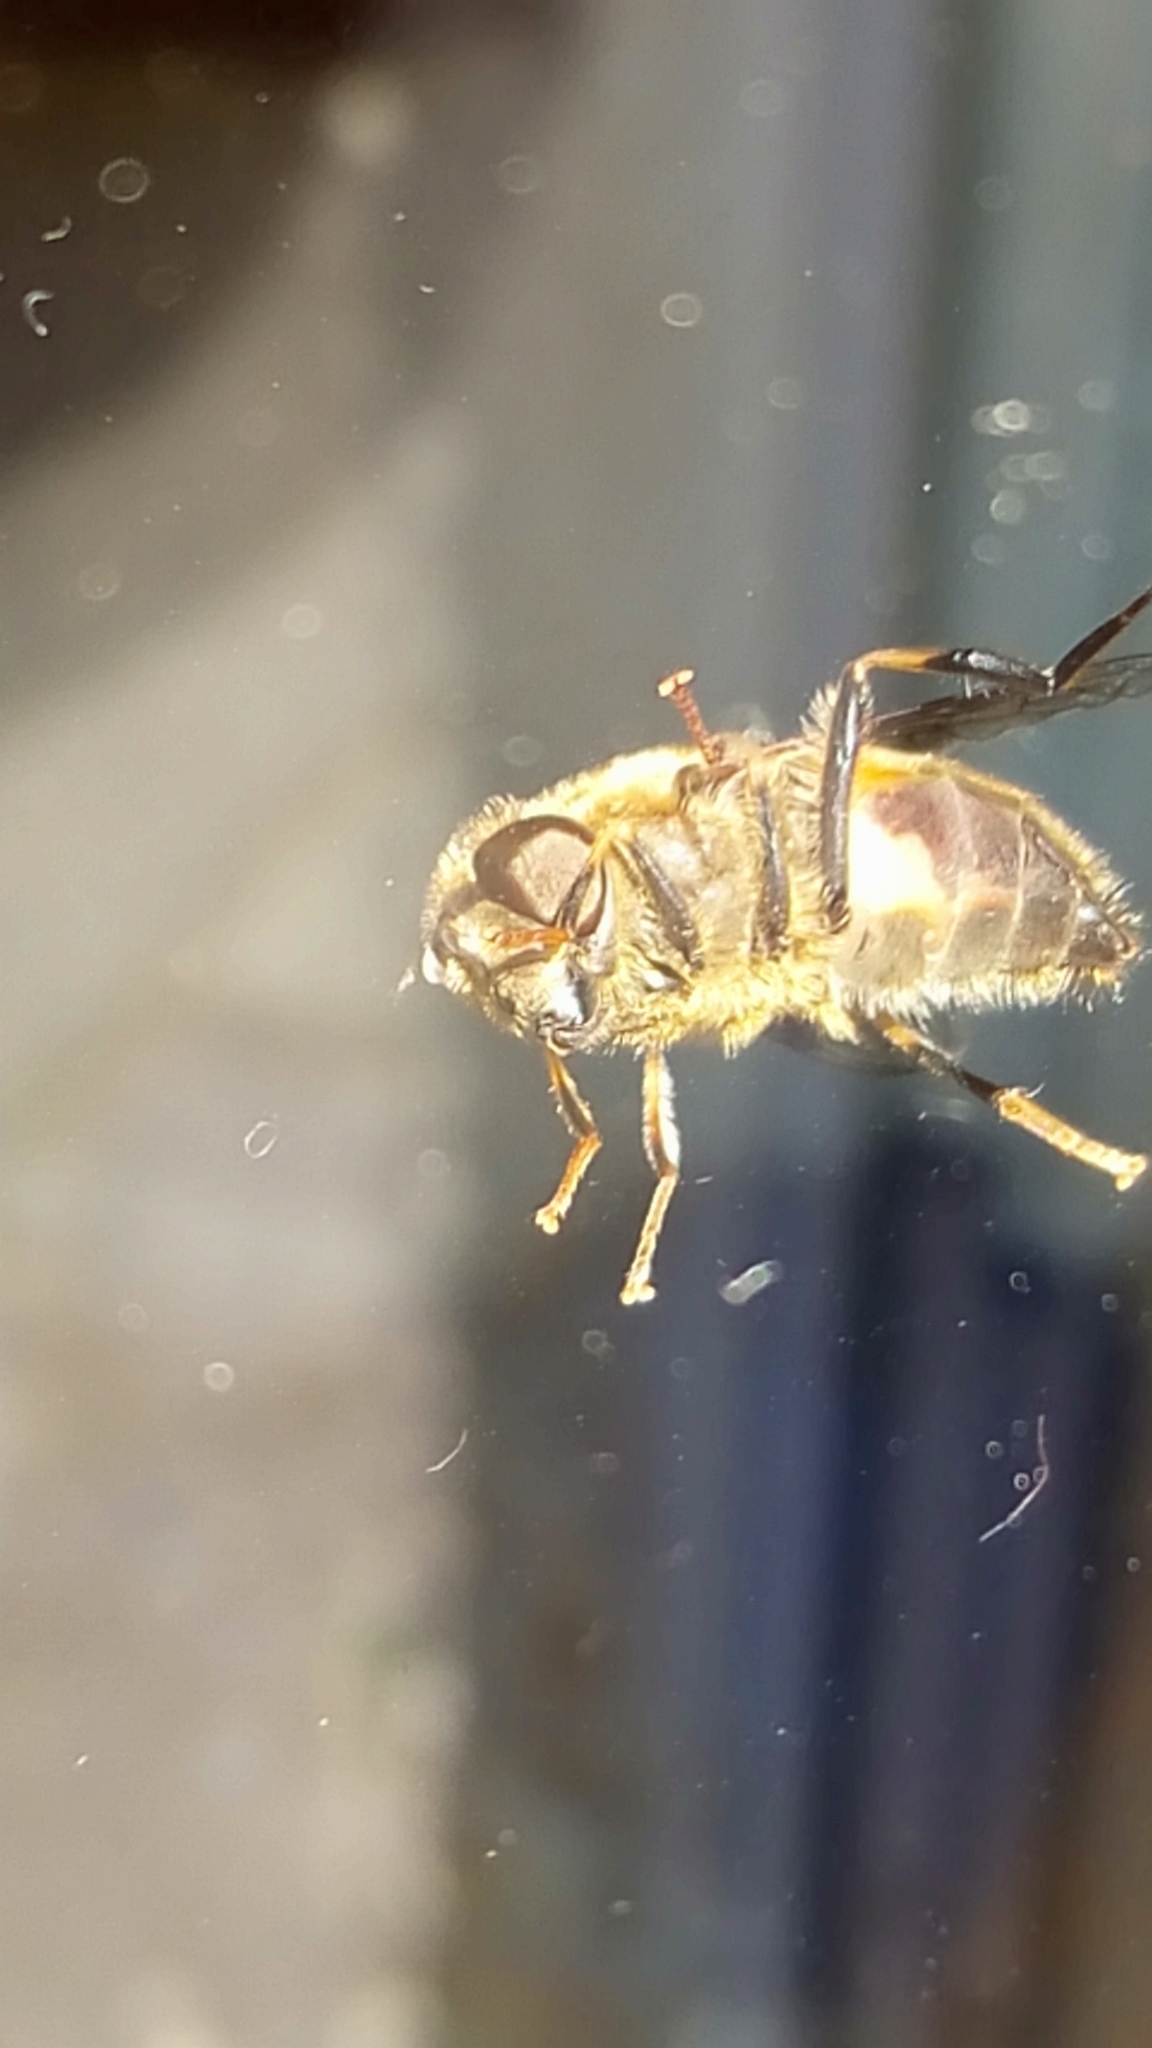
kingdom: Animalia
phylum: Arthropoda
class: Insecta
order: Diptera
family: Syrphidae
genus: Eristalis
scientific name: Eristalis pertinax
